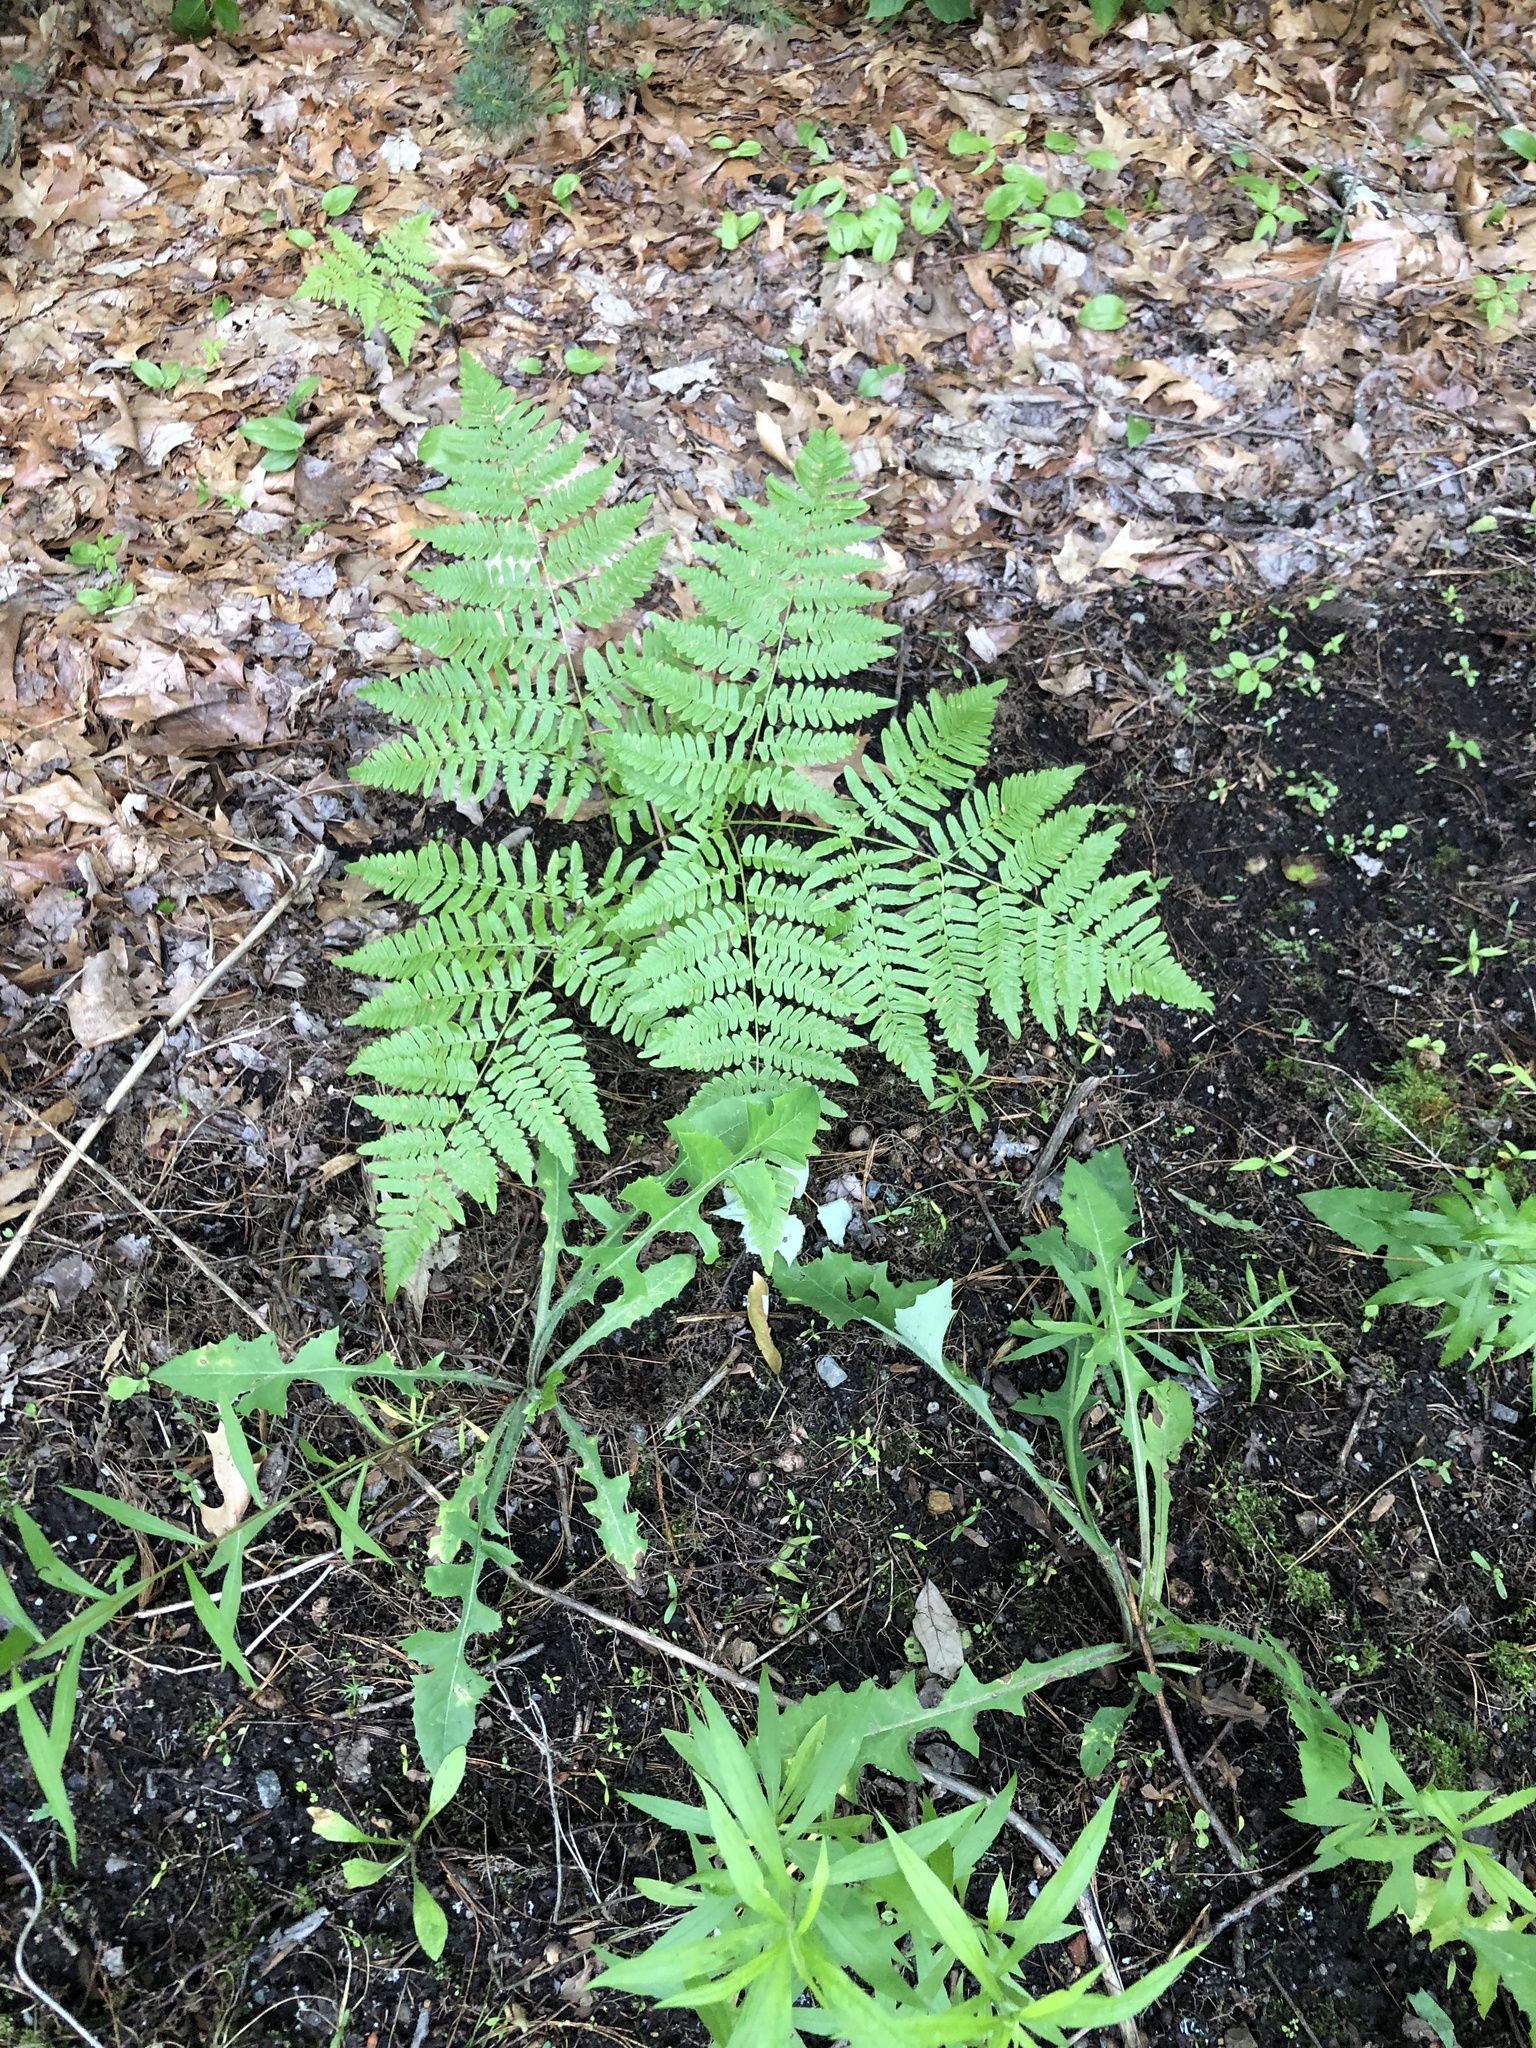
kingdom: Plantae
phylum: Tracheophyta
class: Polypodiopsida
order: Polypodiales
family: Dennstaedtiaceae
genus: Pteridium
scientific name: Pteridium aquilinum
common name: Bracken
